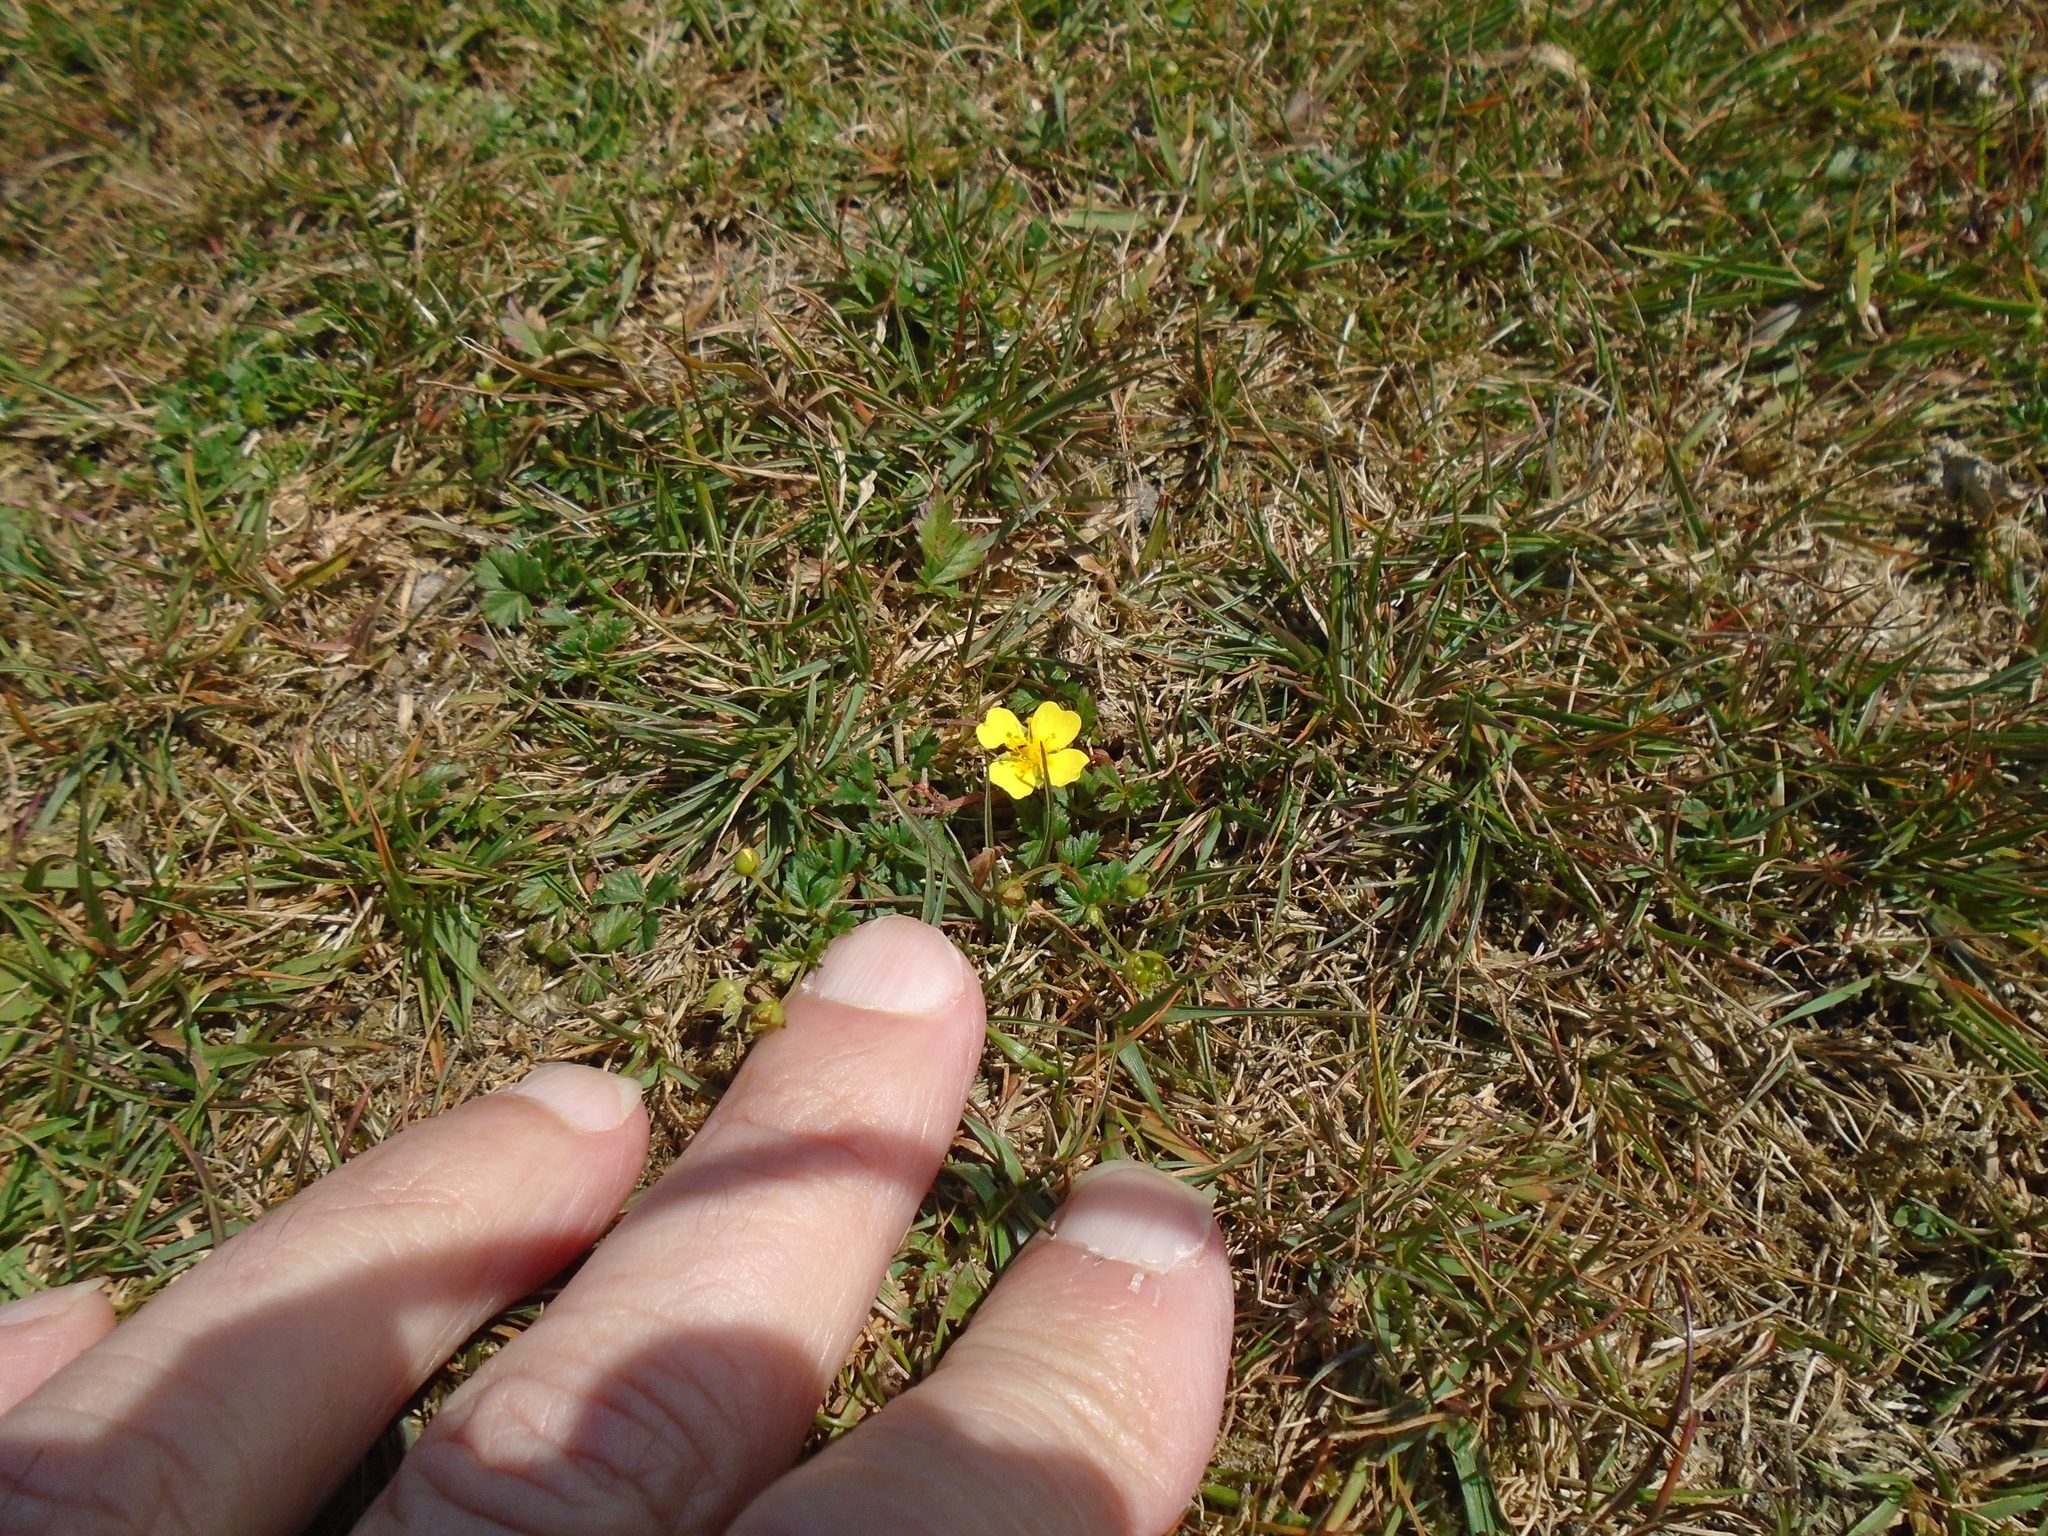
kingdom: Plantae
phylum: Tracheophyta
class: Magnoliopsida
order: Rosales
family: Rosaceae
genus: Potentilla
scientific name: Potentilla erecta
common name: Tormentil
